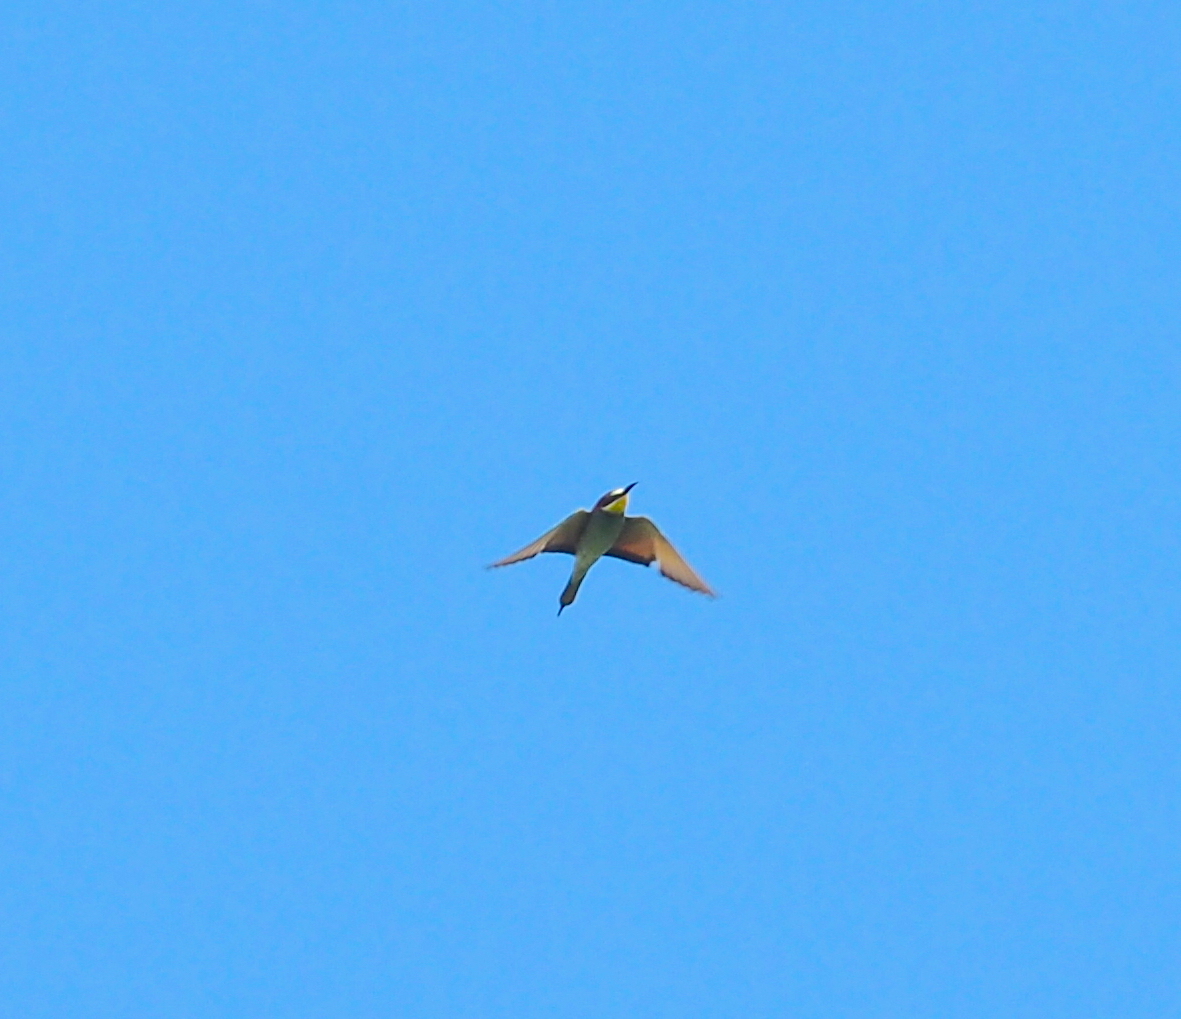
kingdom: Animalia
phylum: Chordata
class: Aves
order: Coraciiformes
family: Meropidae
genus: Merops
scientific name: Merops apiaster
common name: European bee-eater
